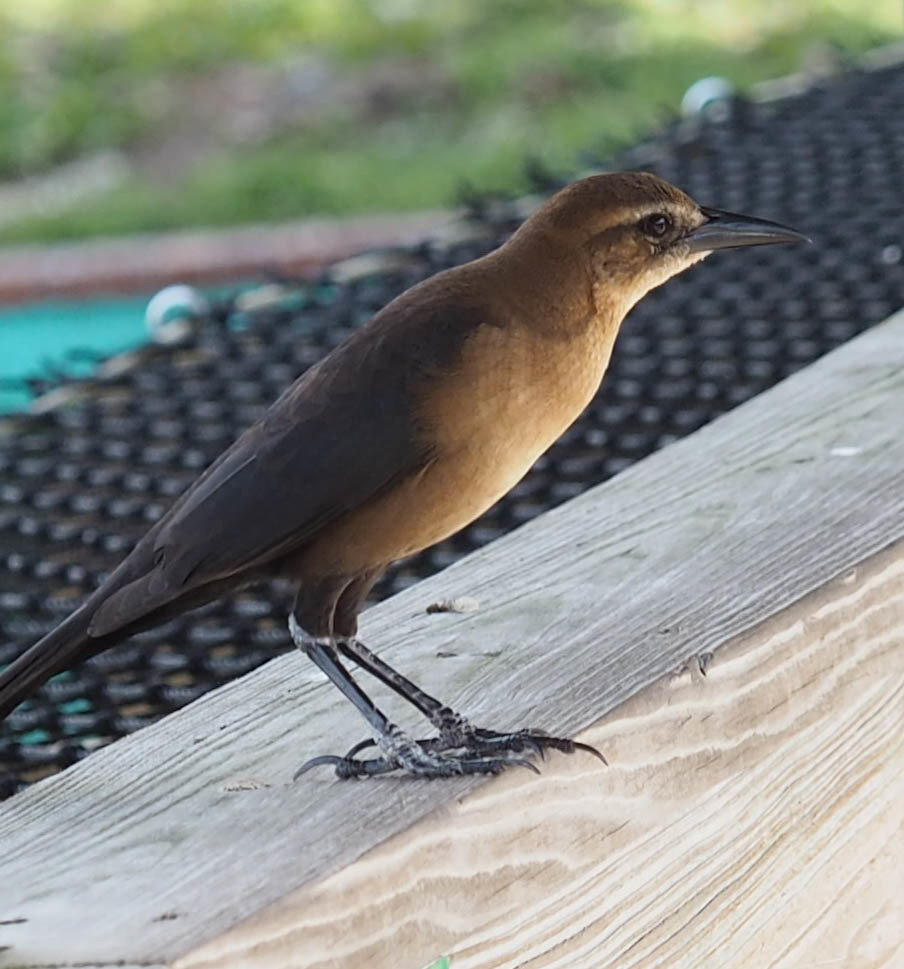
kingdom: Animalia
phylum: Chordata
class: Aves
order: Passeriformes
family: Icteridae
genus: Quiscalus
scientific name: Quiscalus major
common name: Boat-tailed grackle
